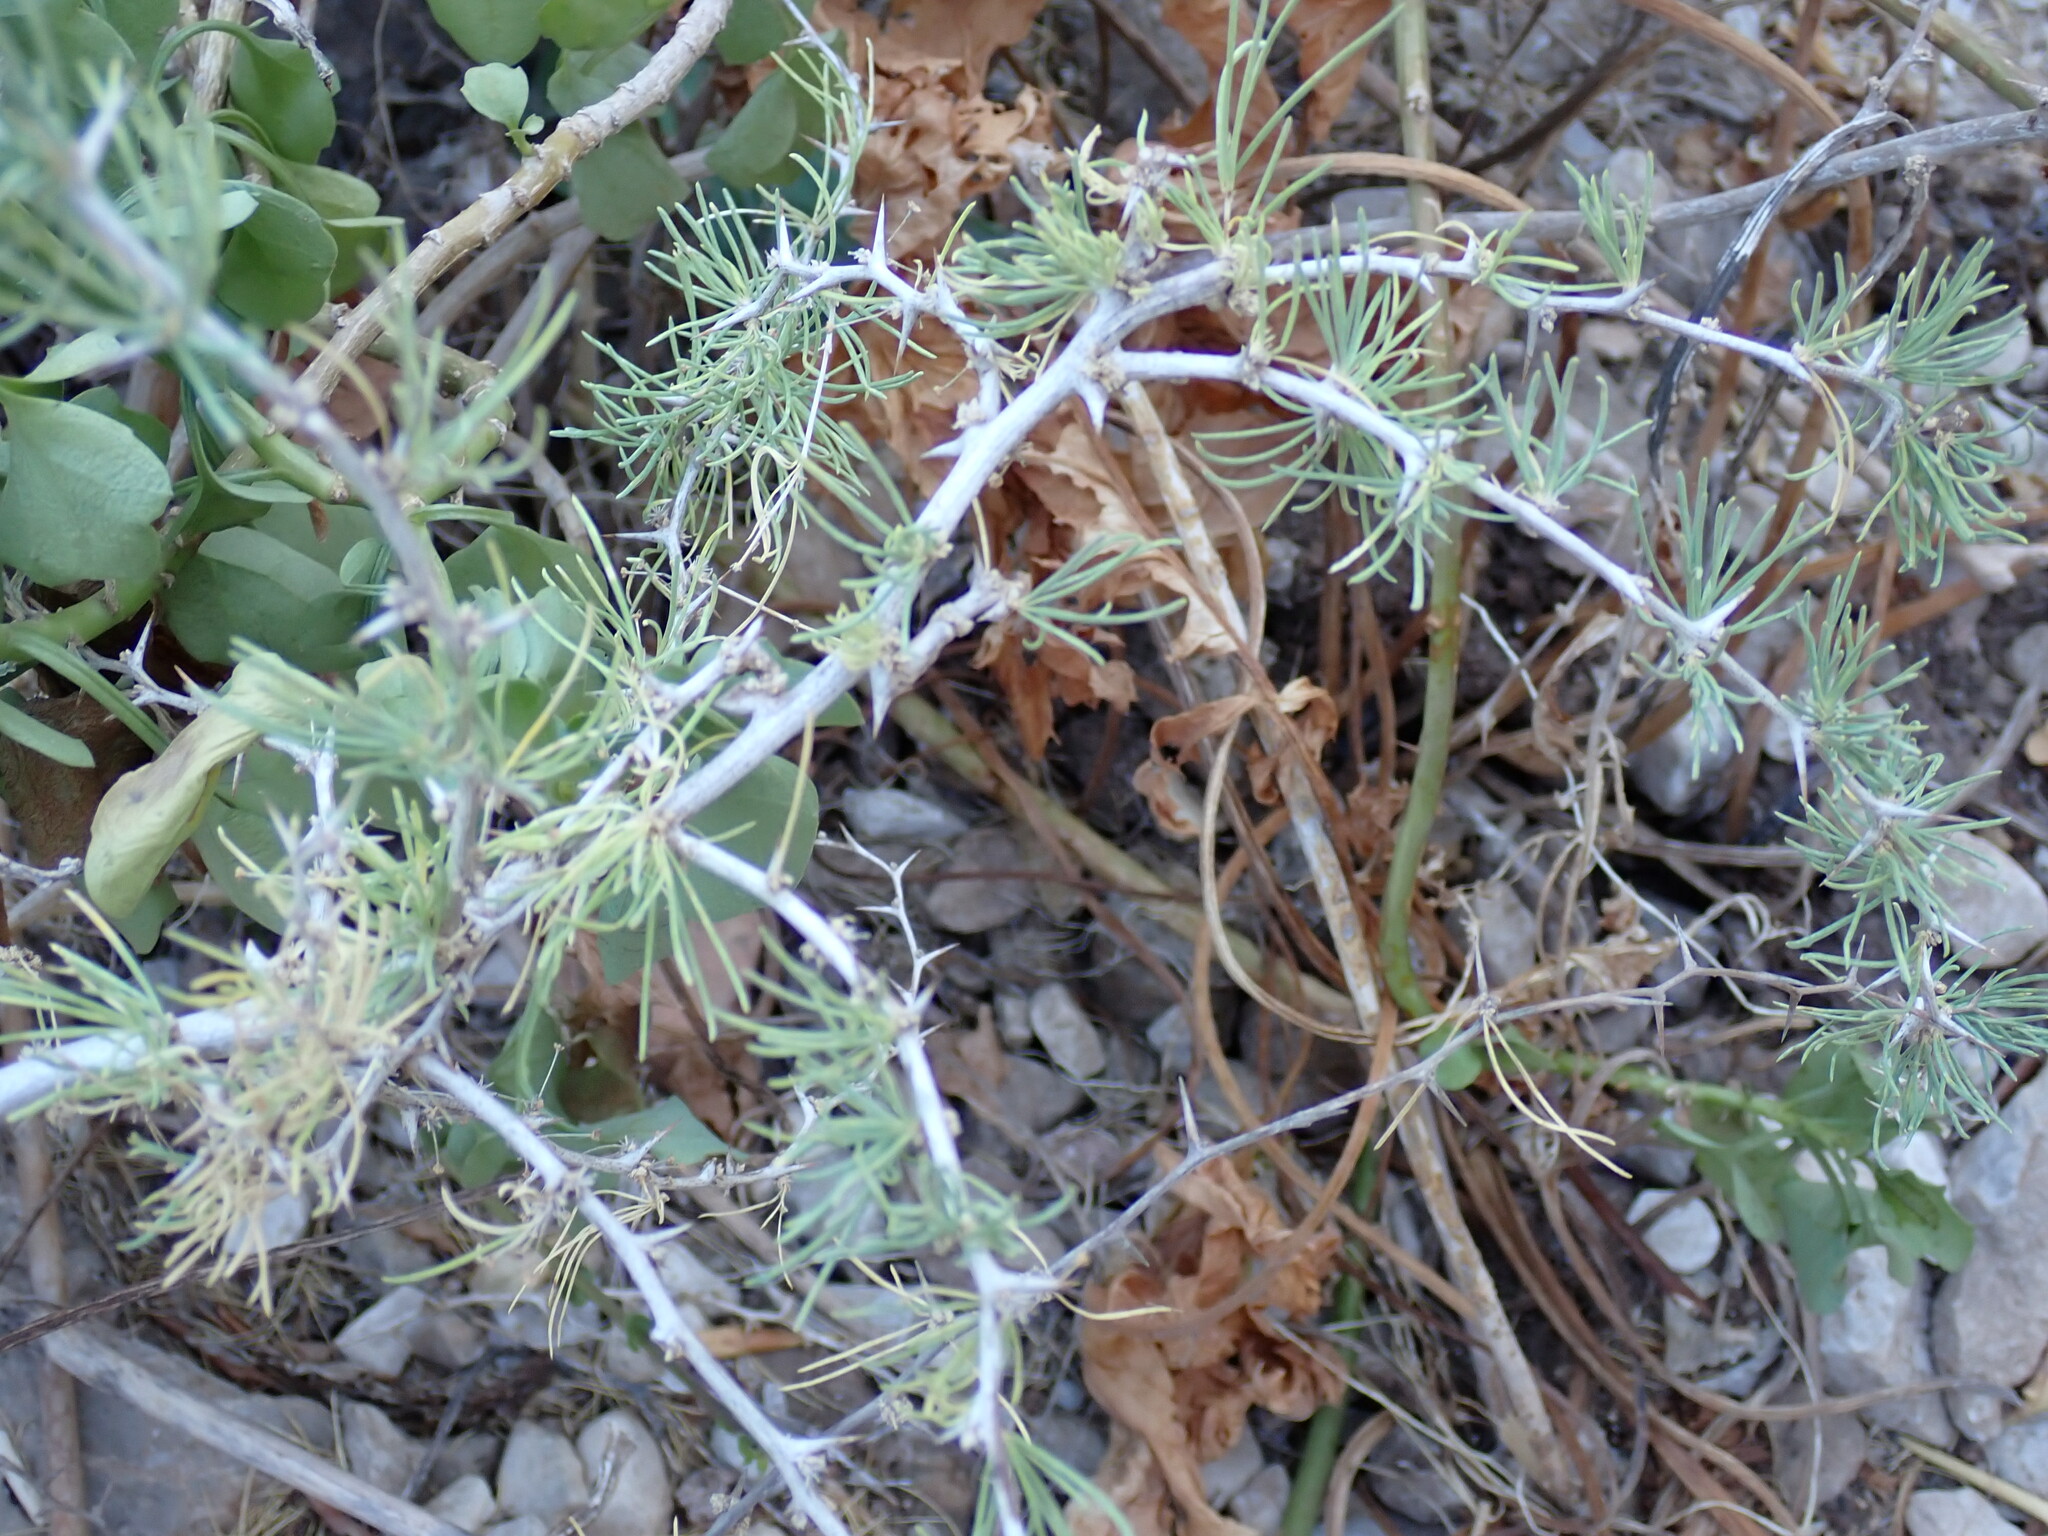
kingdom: Plantae
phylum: Tracheophyta
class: Liliopsida
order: Asparagales
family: Asparagaceae
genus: Asparagus
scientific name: Asparagus albus
